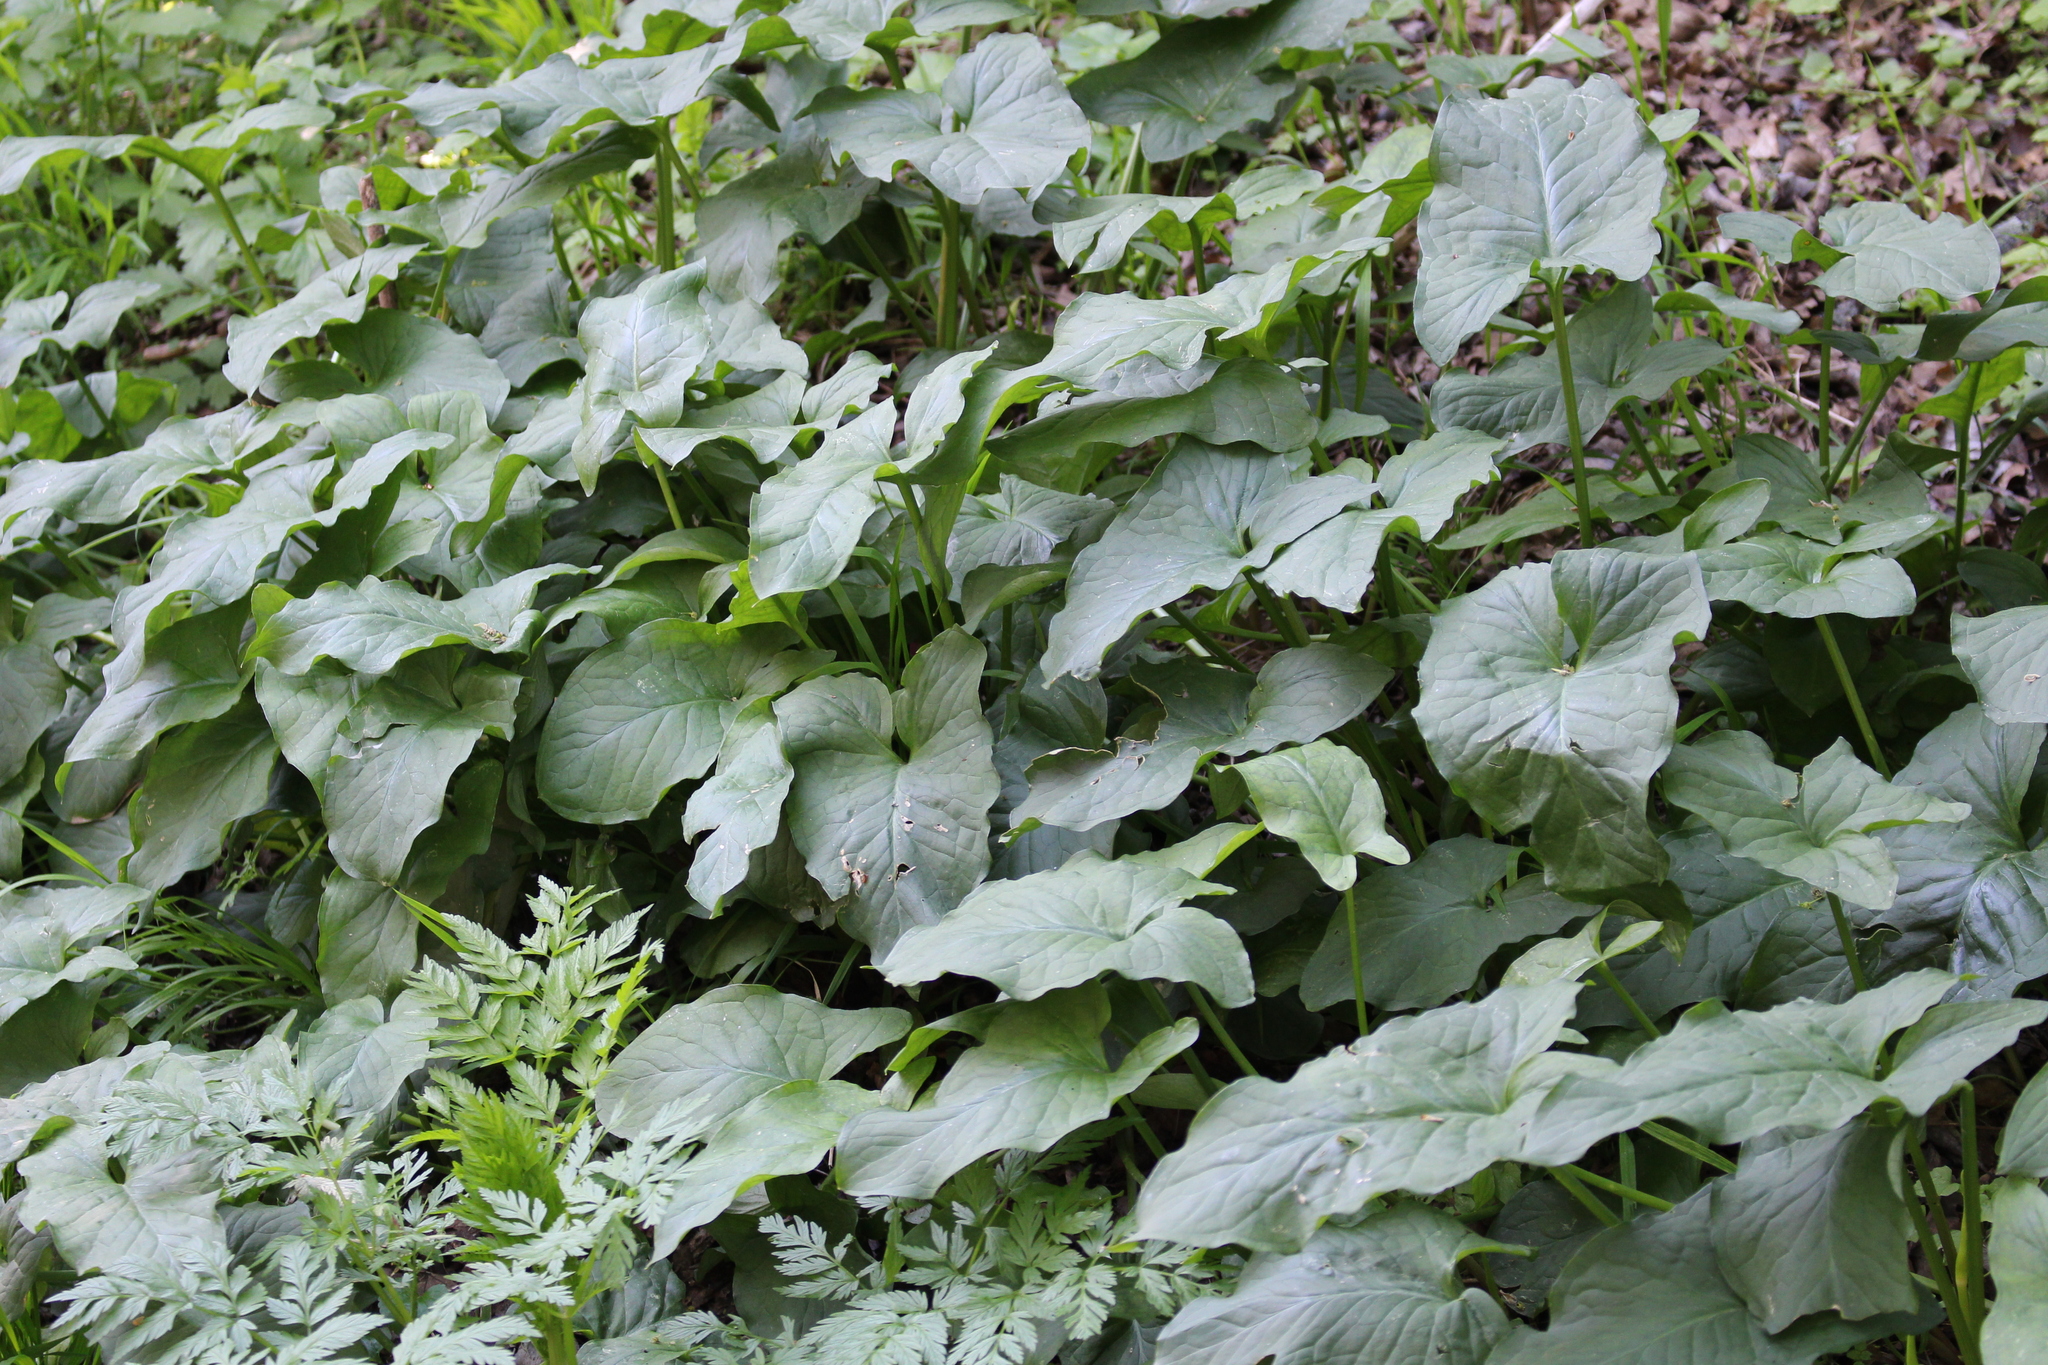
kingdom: Plantae
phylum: Tracheophyta
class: Liliopsida
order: Alismatales
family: Araceae
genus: Arum
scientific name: Arum cylindraceum
